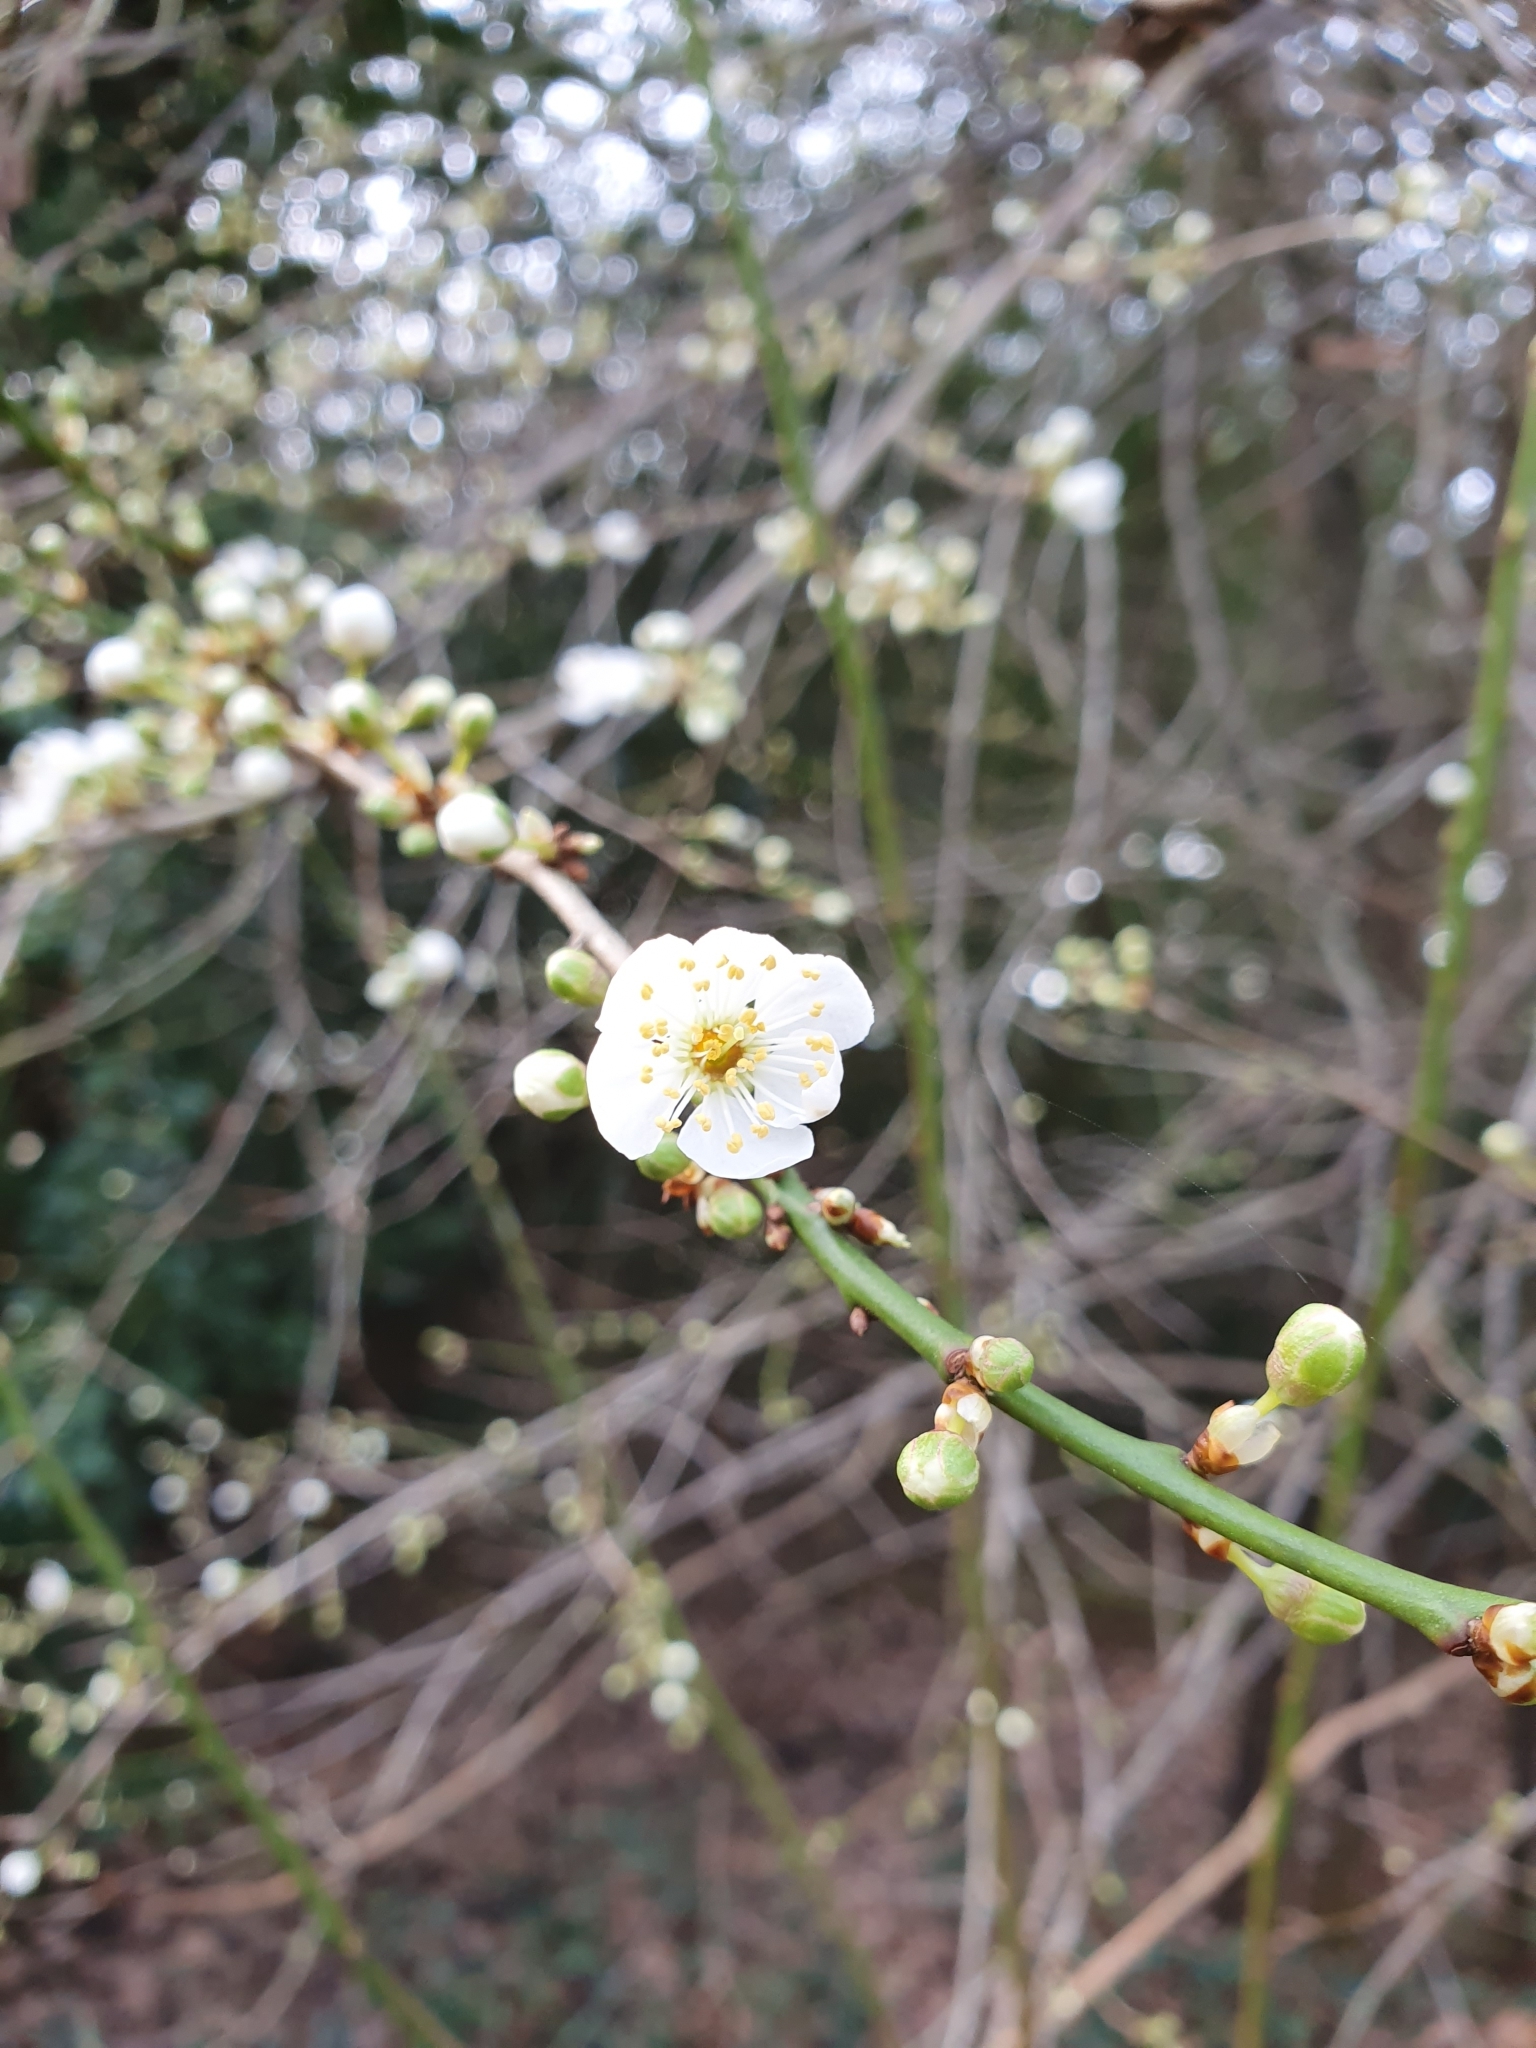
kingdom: Plantae
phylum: Tracheophyta
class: Magnoliopsida
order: Rosales
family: Rosaceae
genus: Prunus
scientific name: Prunus cerasifera
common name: Cherry plum
